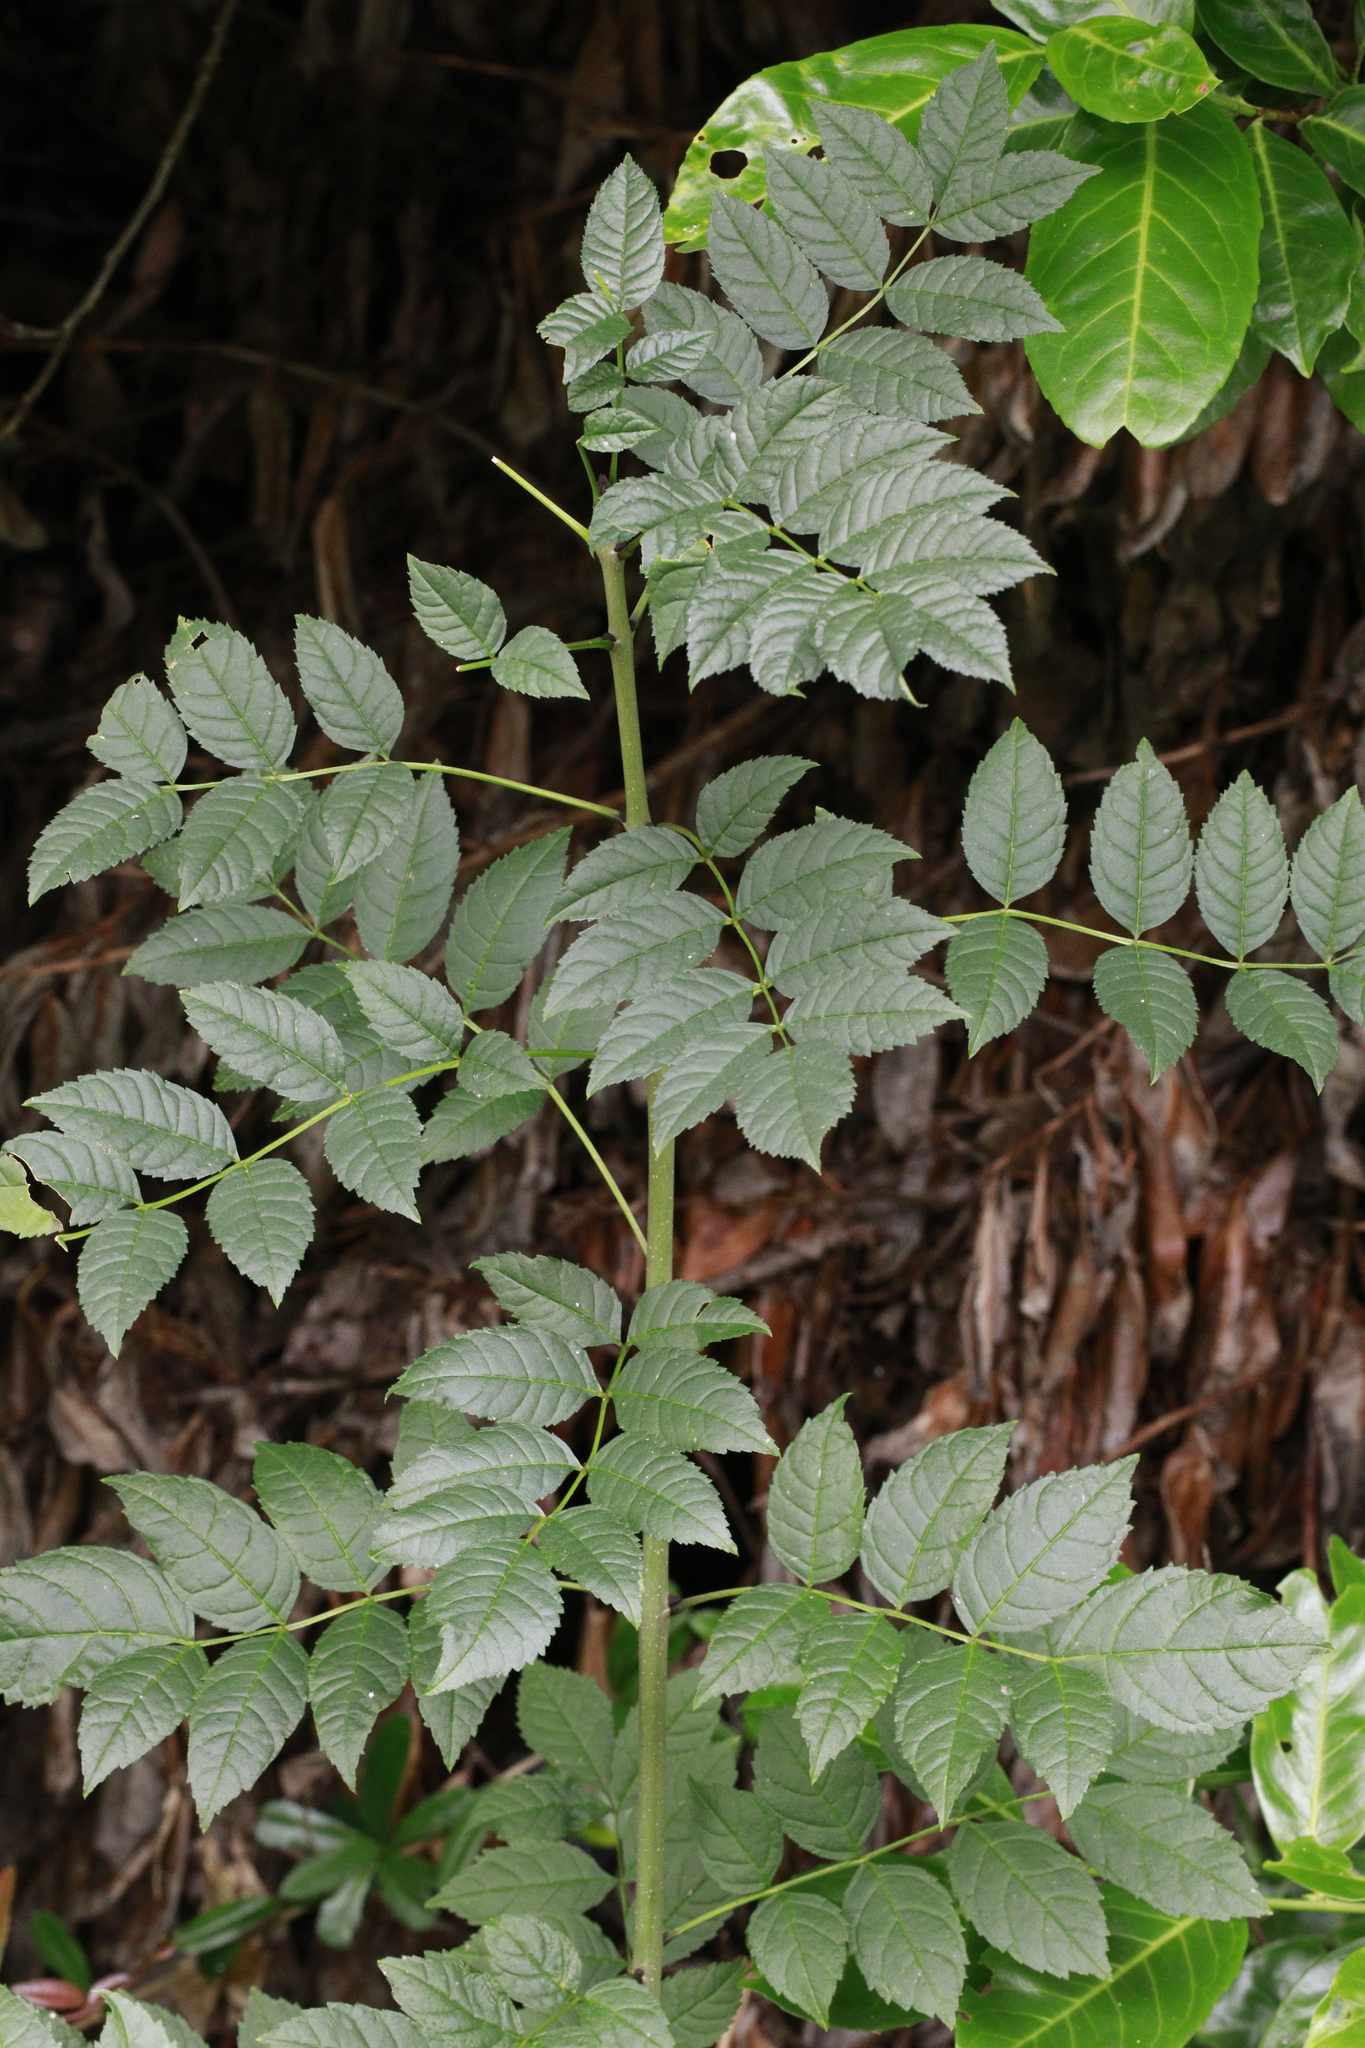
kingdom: Plantae
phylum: Tracheophyta
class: Magnoliopsida
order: Lamiales
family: Oleaceae
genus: Fraxinus
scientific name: Fraxinus excelsior
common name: European ash
